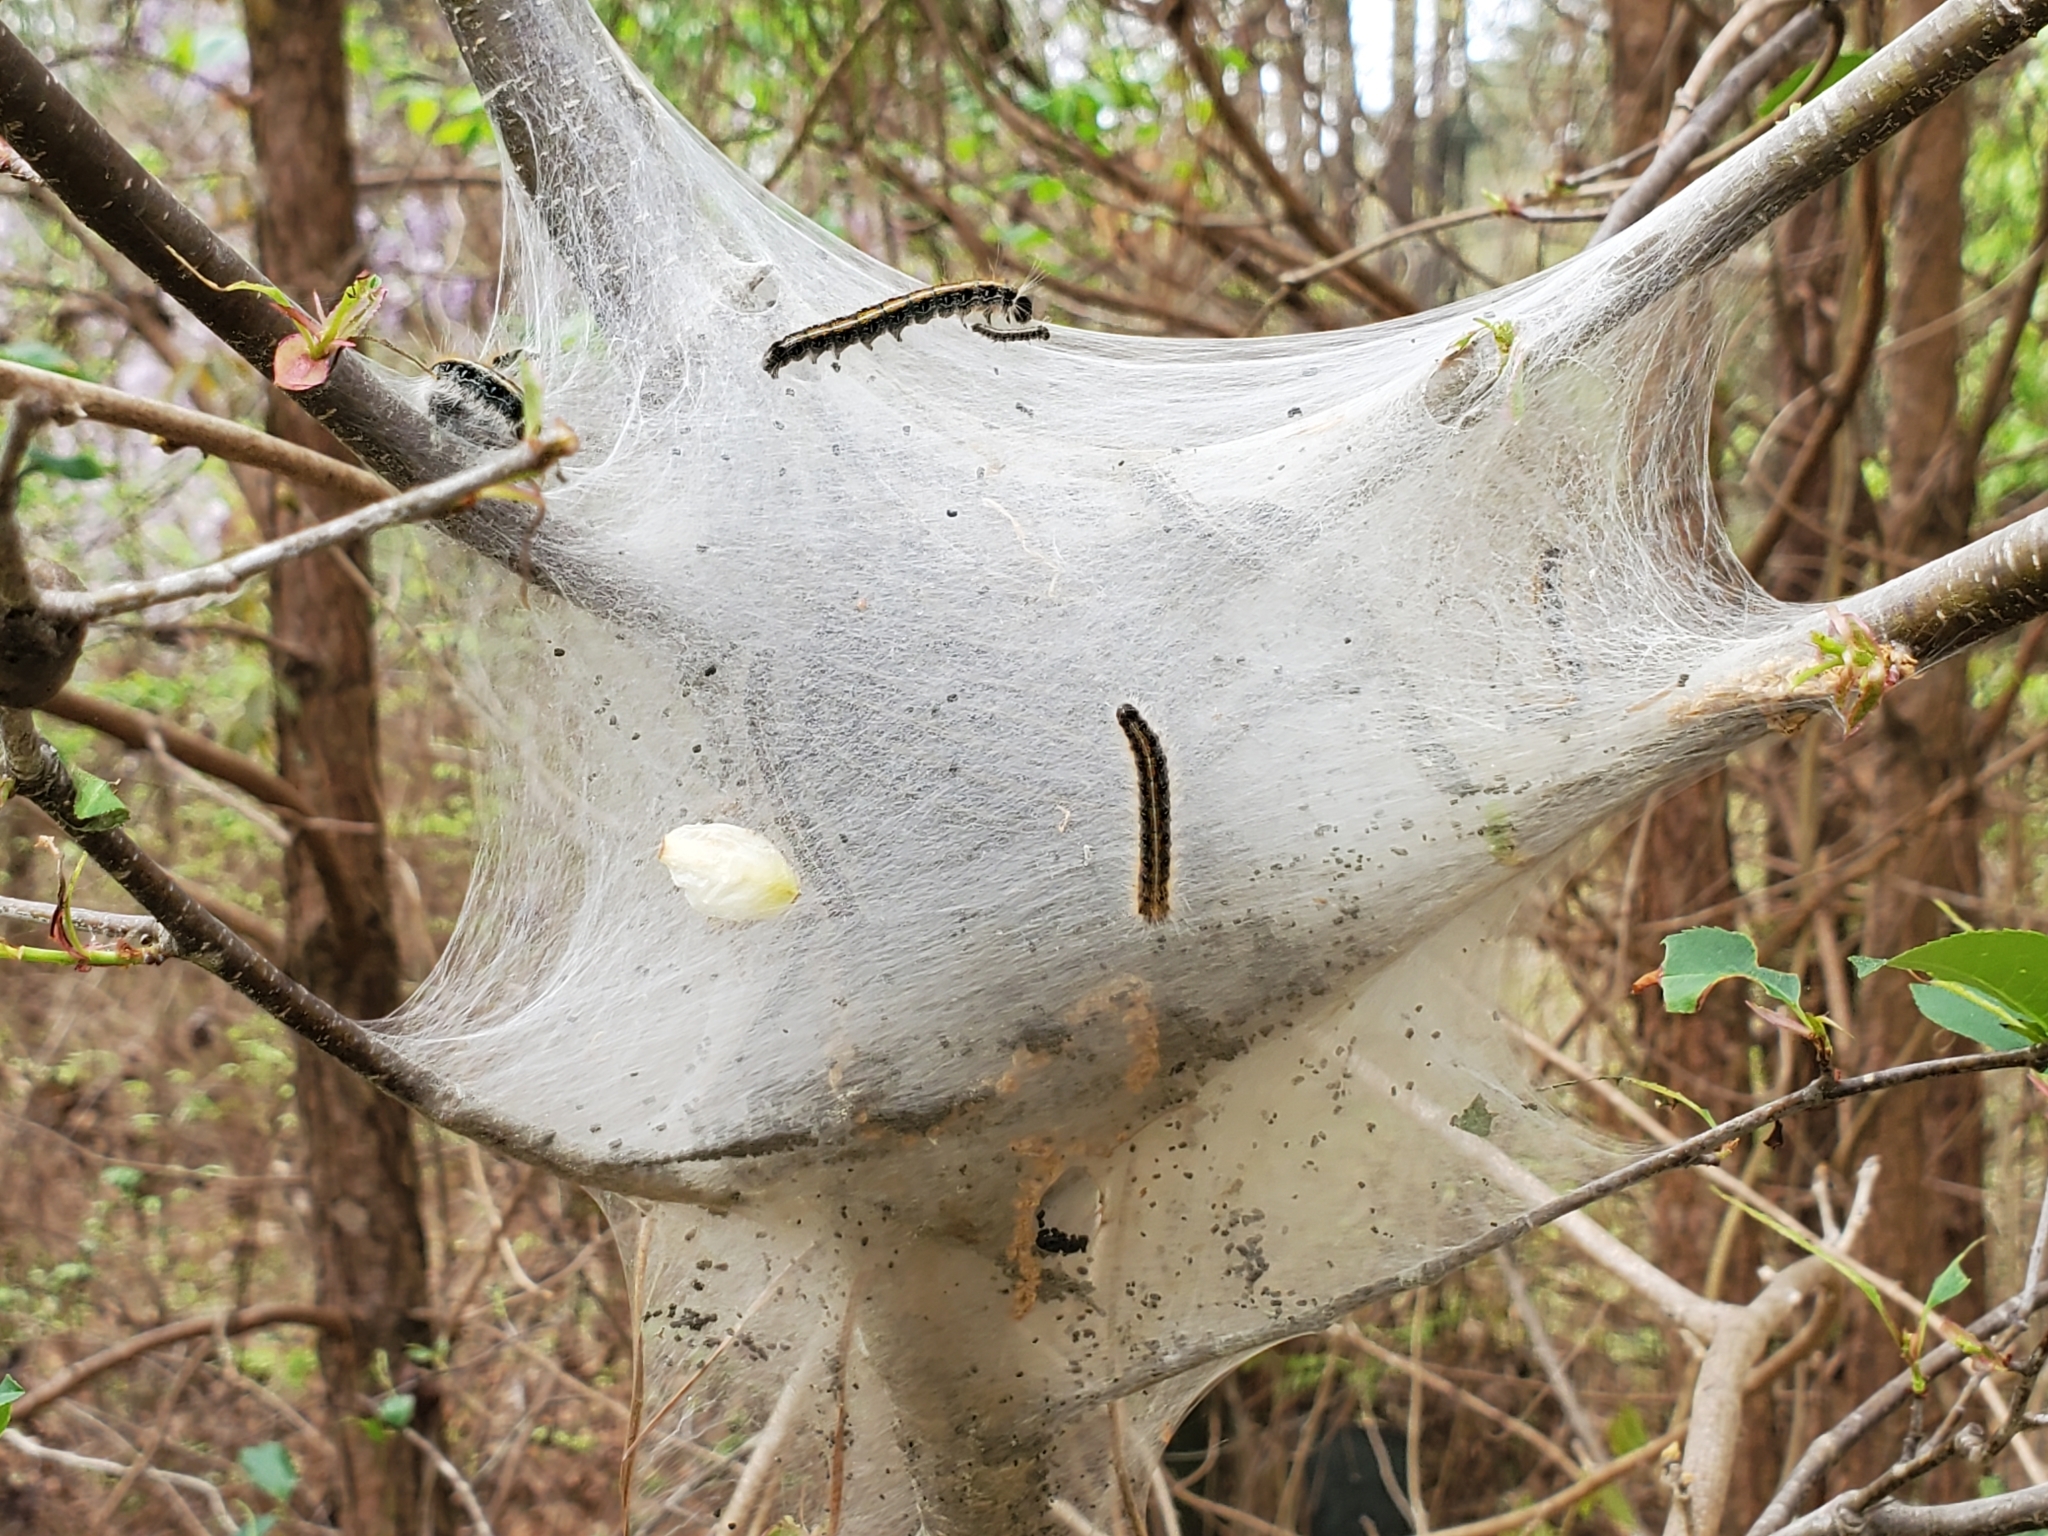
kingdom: Animalia
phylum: Arthropoda
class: Insecta
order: Lepidoptera
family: Lasiocampidae
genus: Malacosoma
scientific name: Malacosoma americana
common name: Eastern tent caterpillar moth
